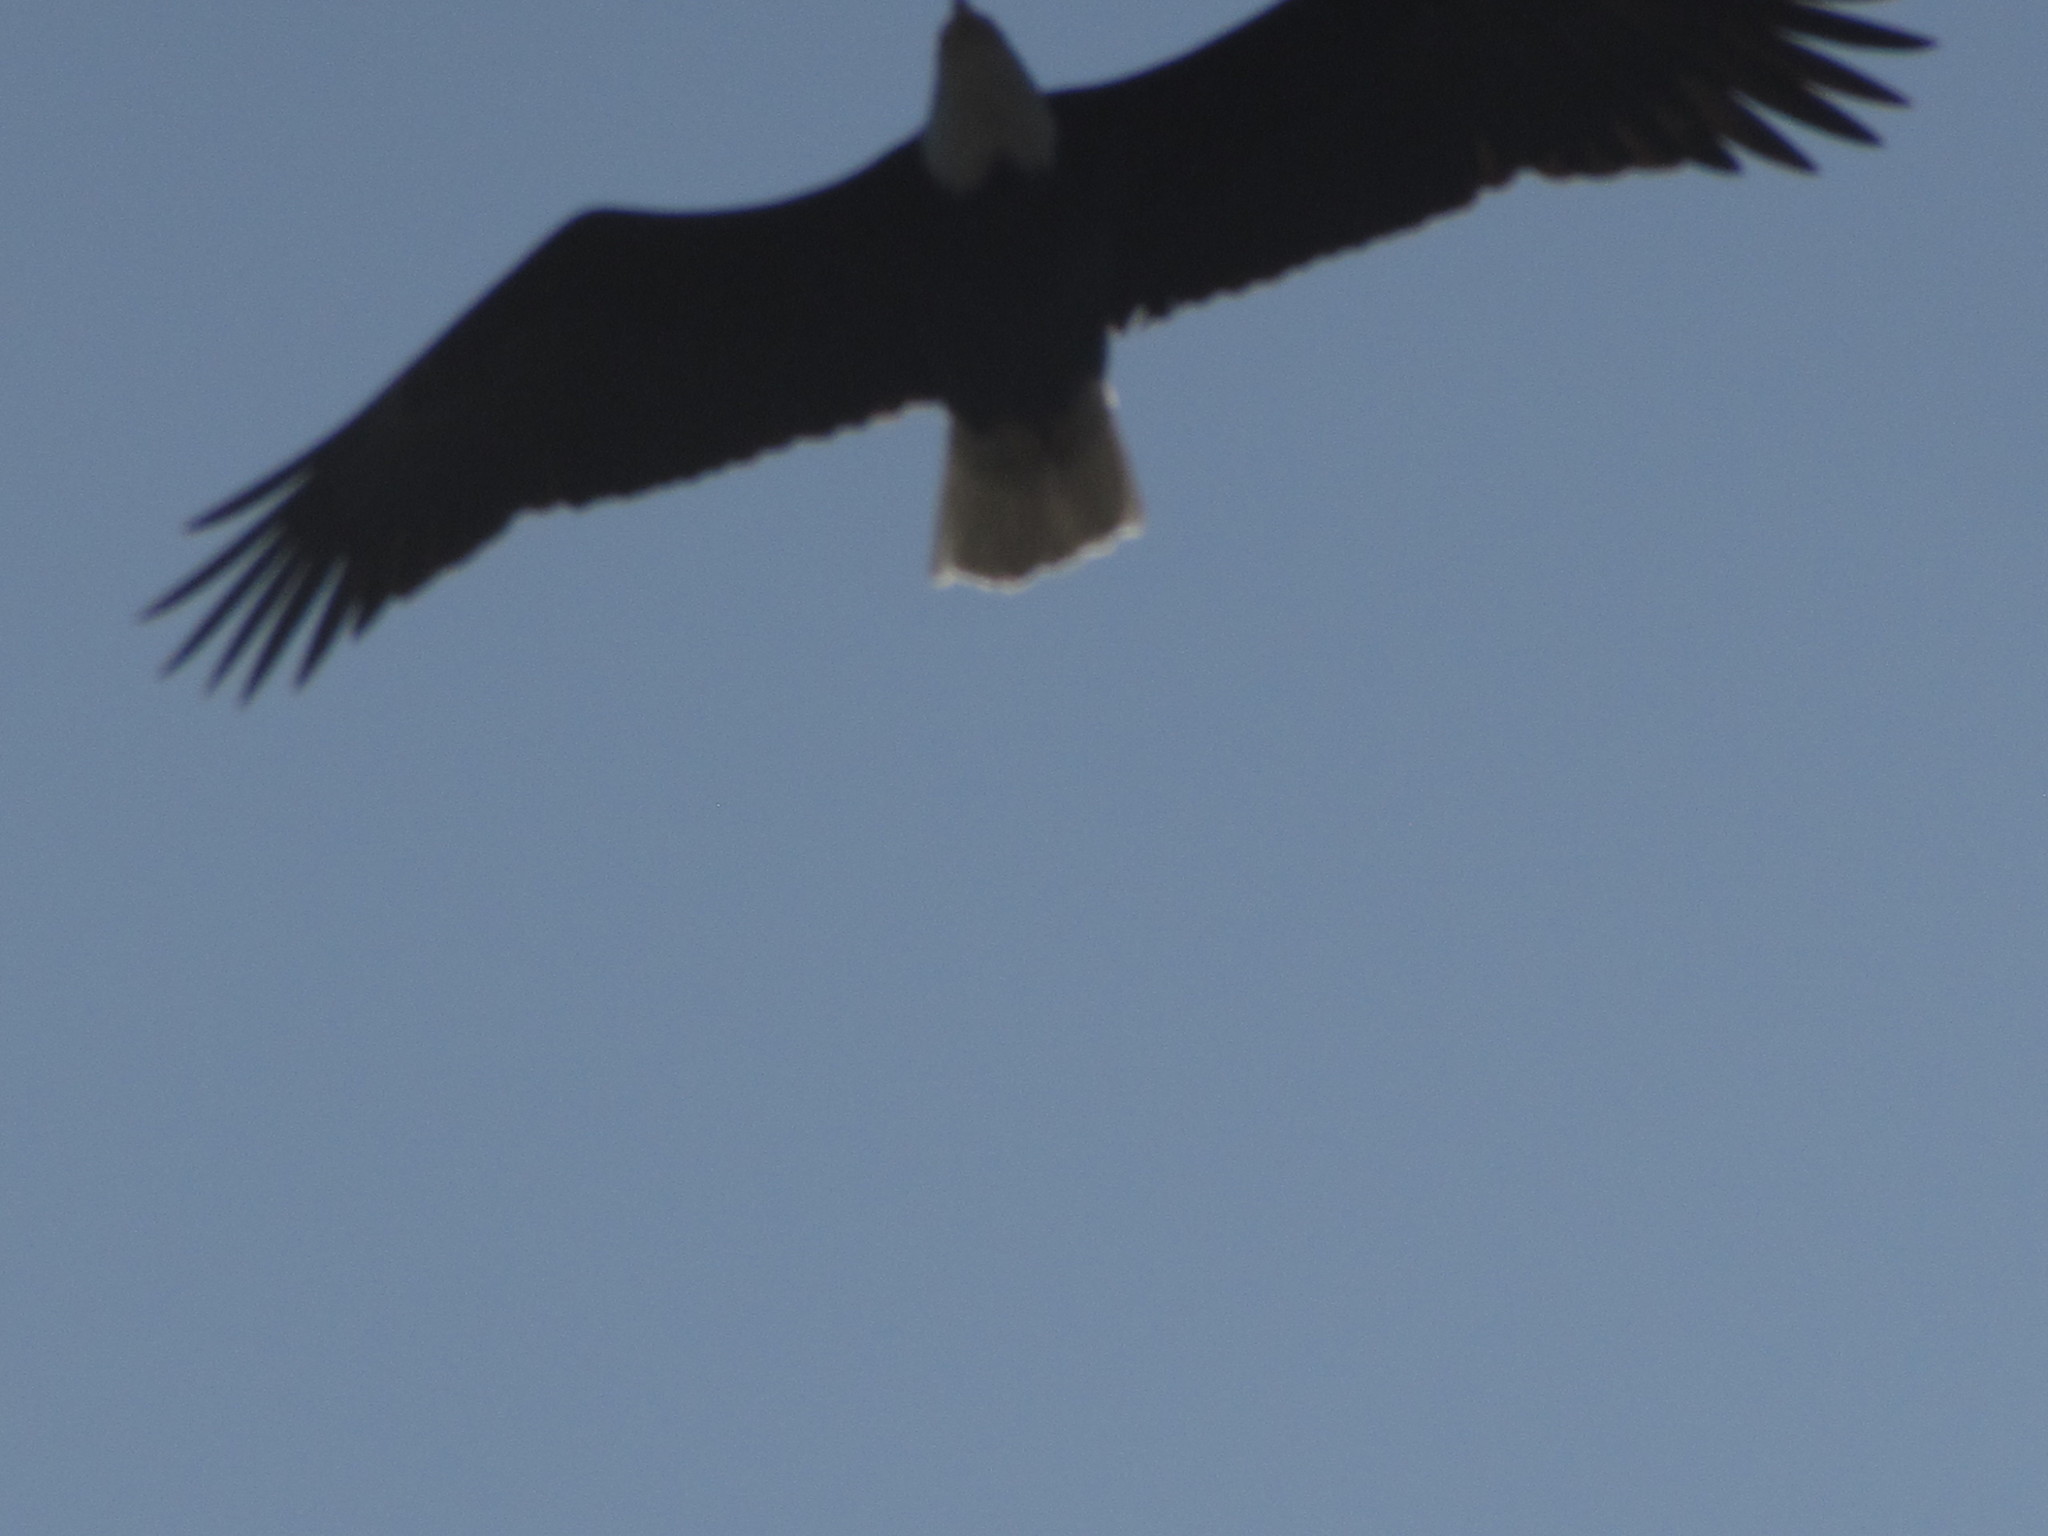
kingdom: Animalia
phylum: Chordata
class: Aves
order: Accipitriformes
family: Accipitridae
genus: Haliaeetus
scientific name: Haliaeetus leucocephalus
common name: Bald eagle
